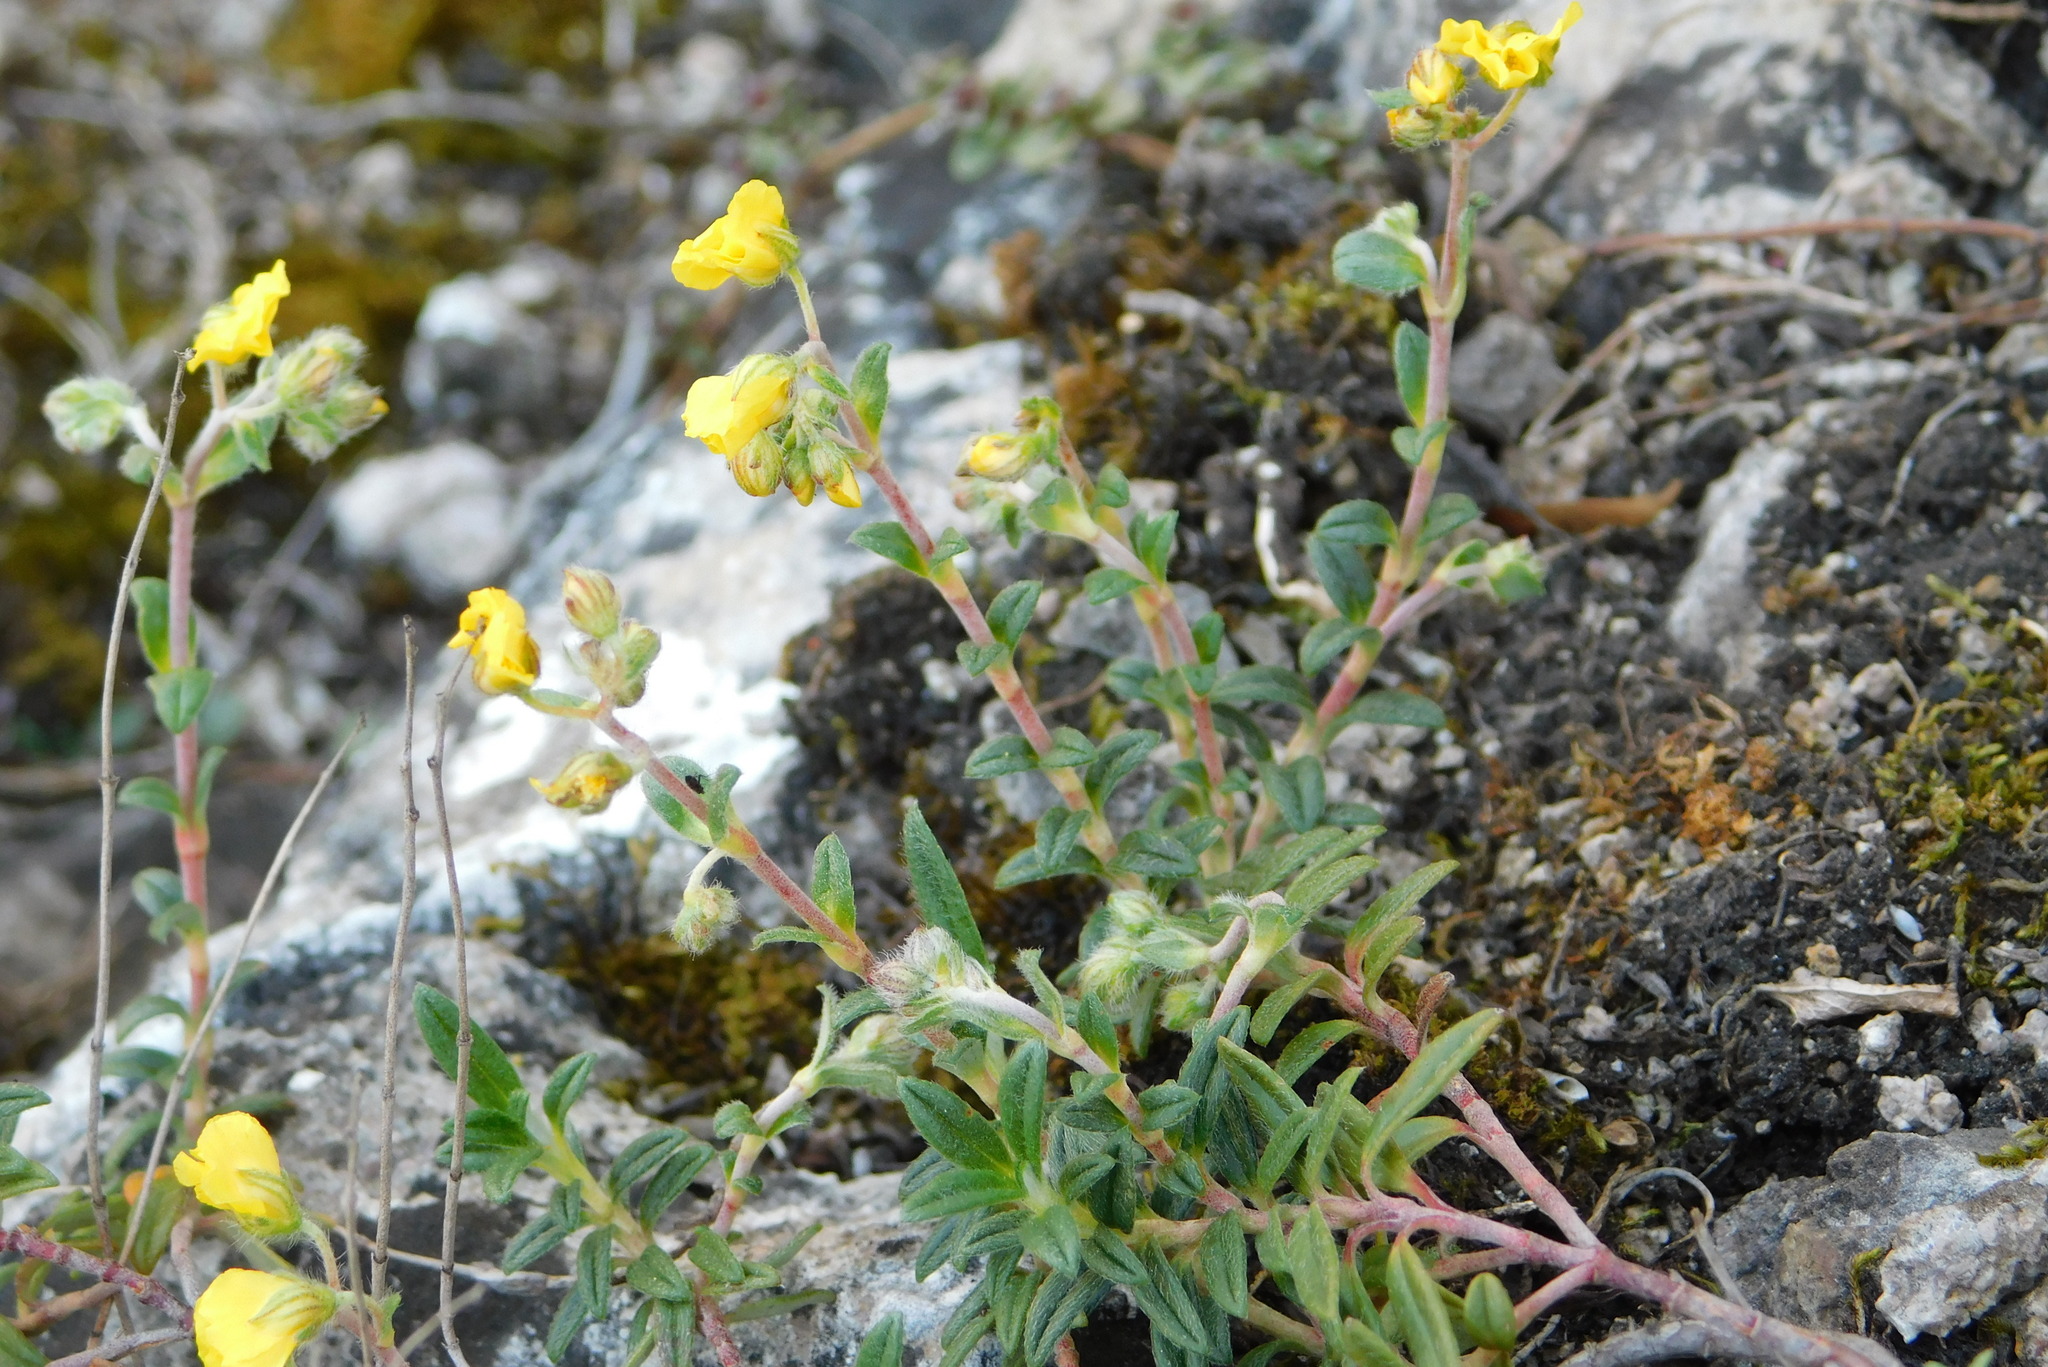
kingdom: Plantae
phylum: Tracheophyta
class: Magnoliopsida
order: Malvales
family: Cistaceae
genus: Helianthemum
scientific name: Helianthemum canum
